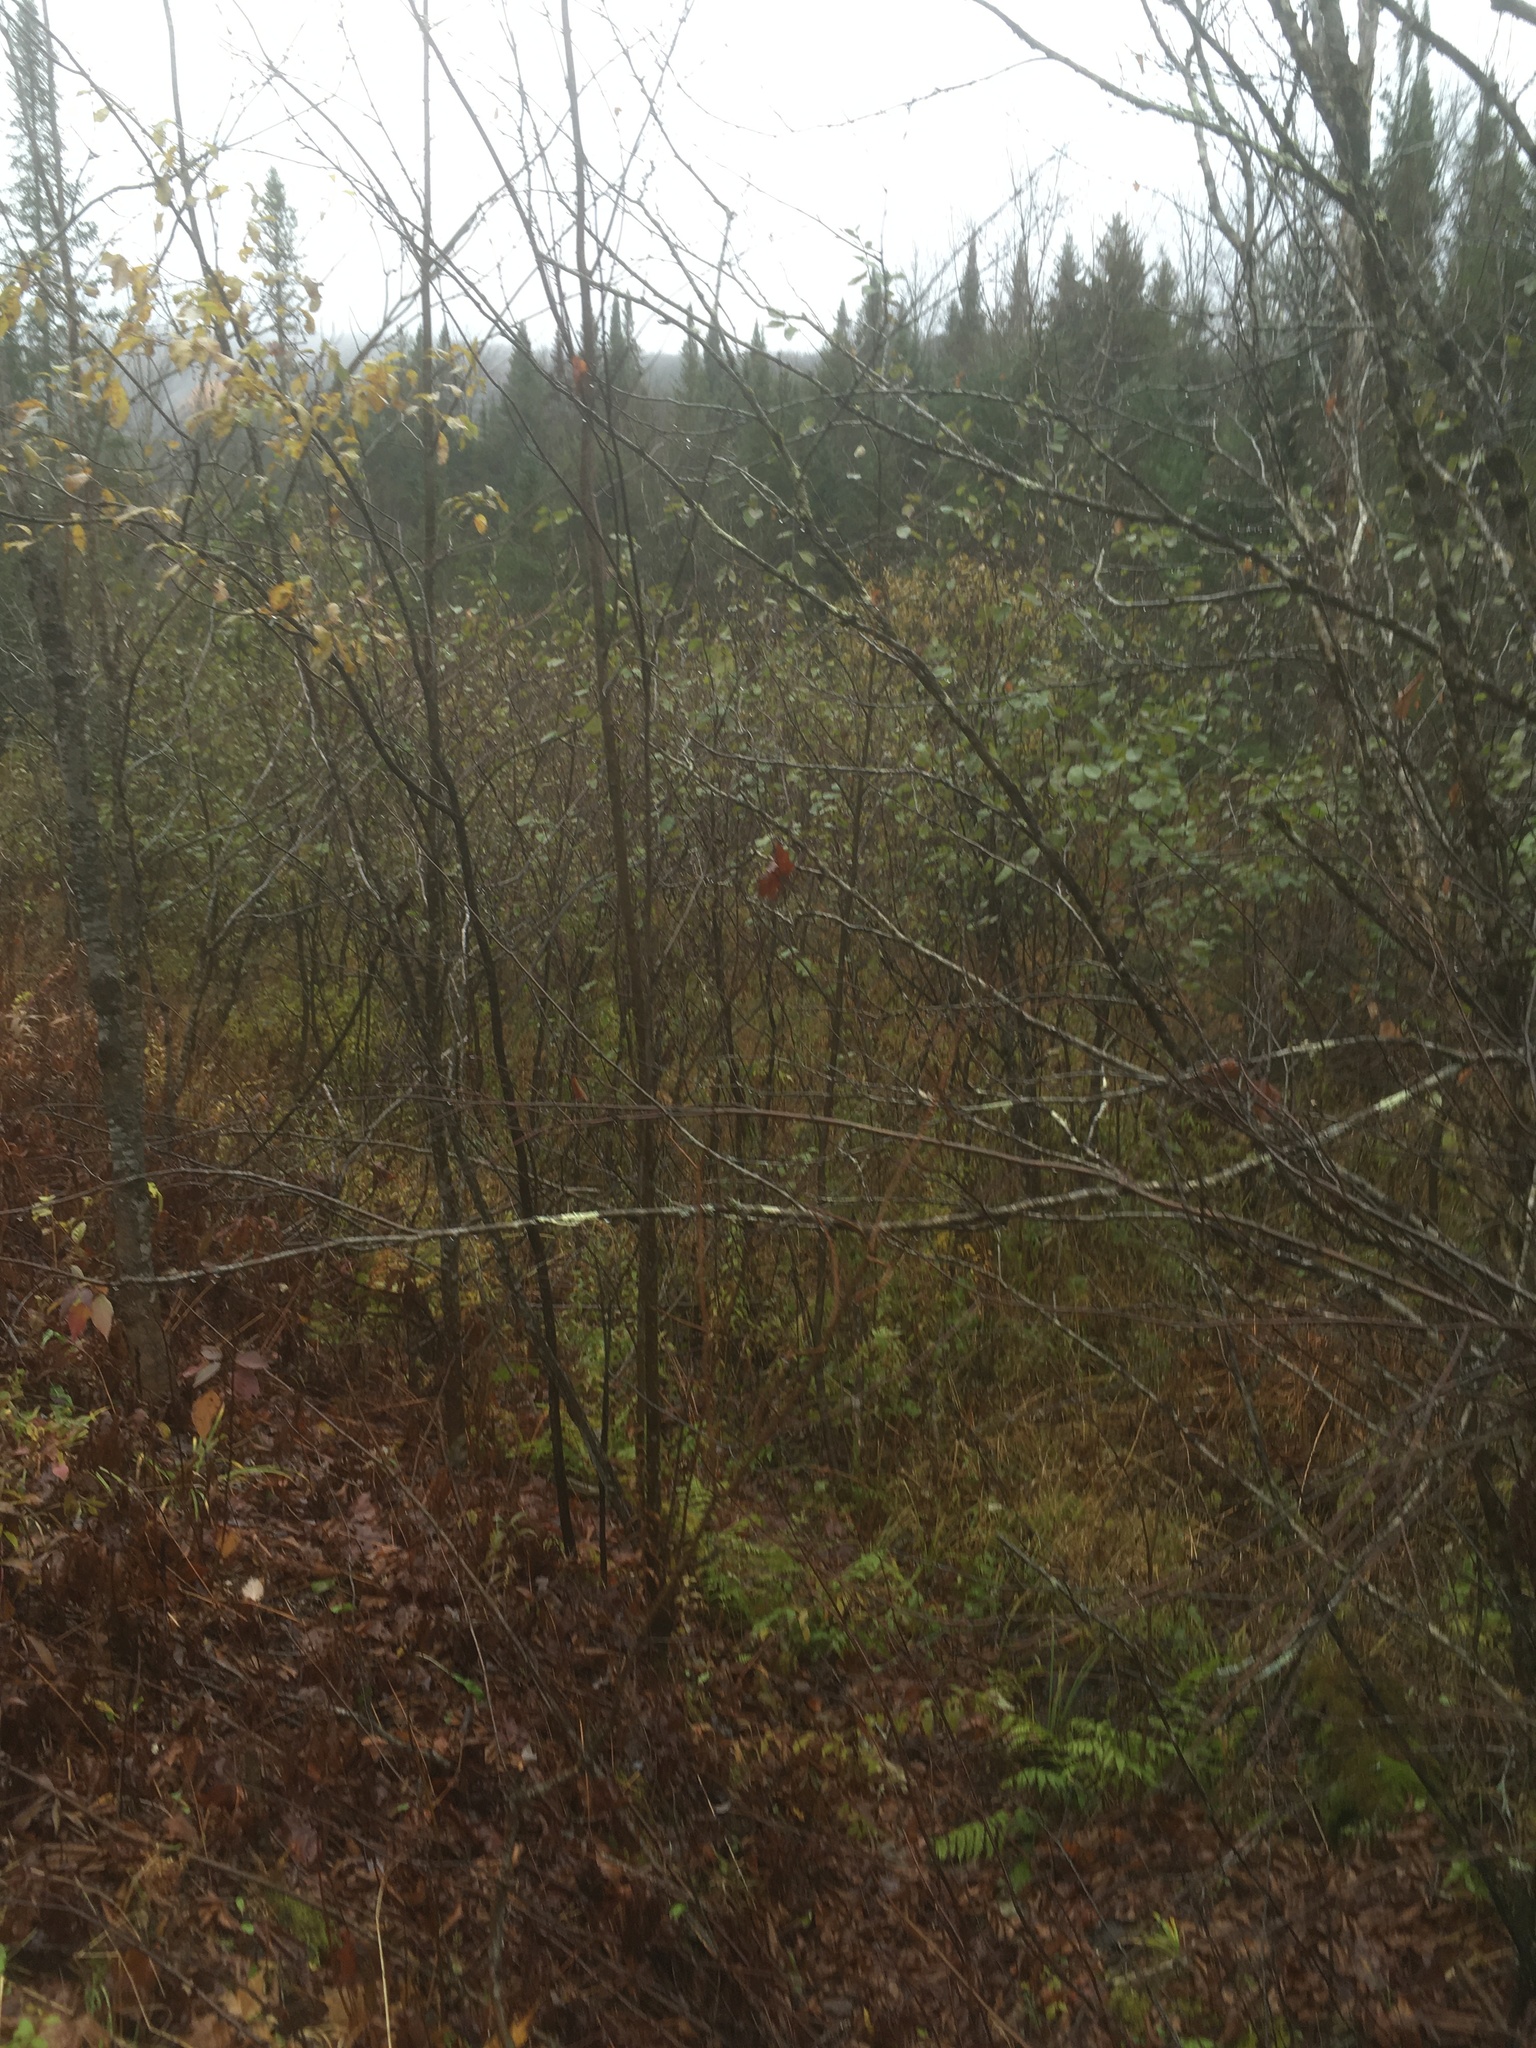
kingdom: Plantae
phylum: Tracheophyta
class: Magnoliopsida
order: Fagales
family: Betulaceae
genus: Alnus
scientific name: Alnus incana
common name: Grey alder
